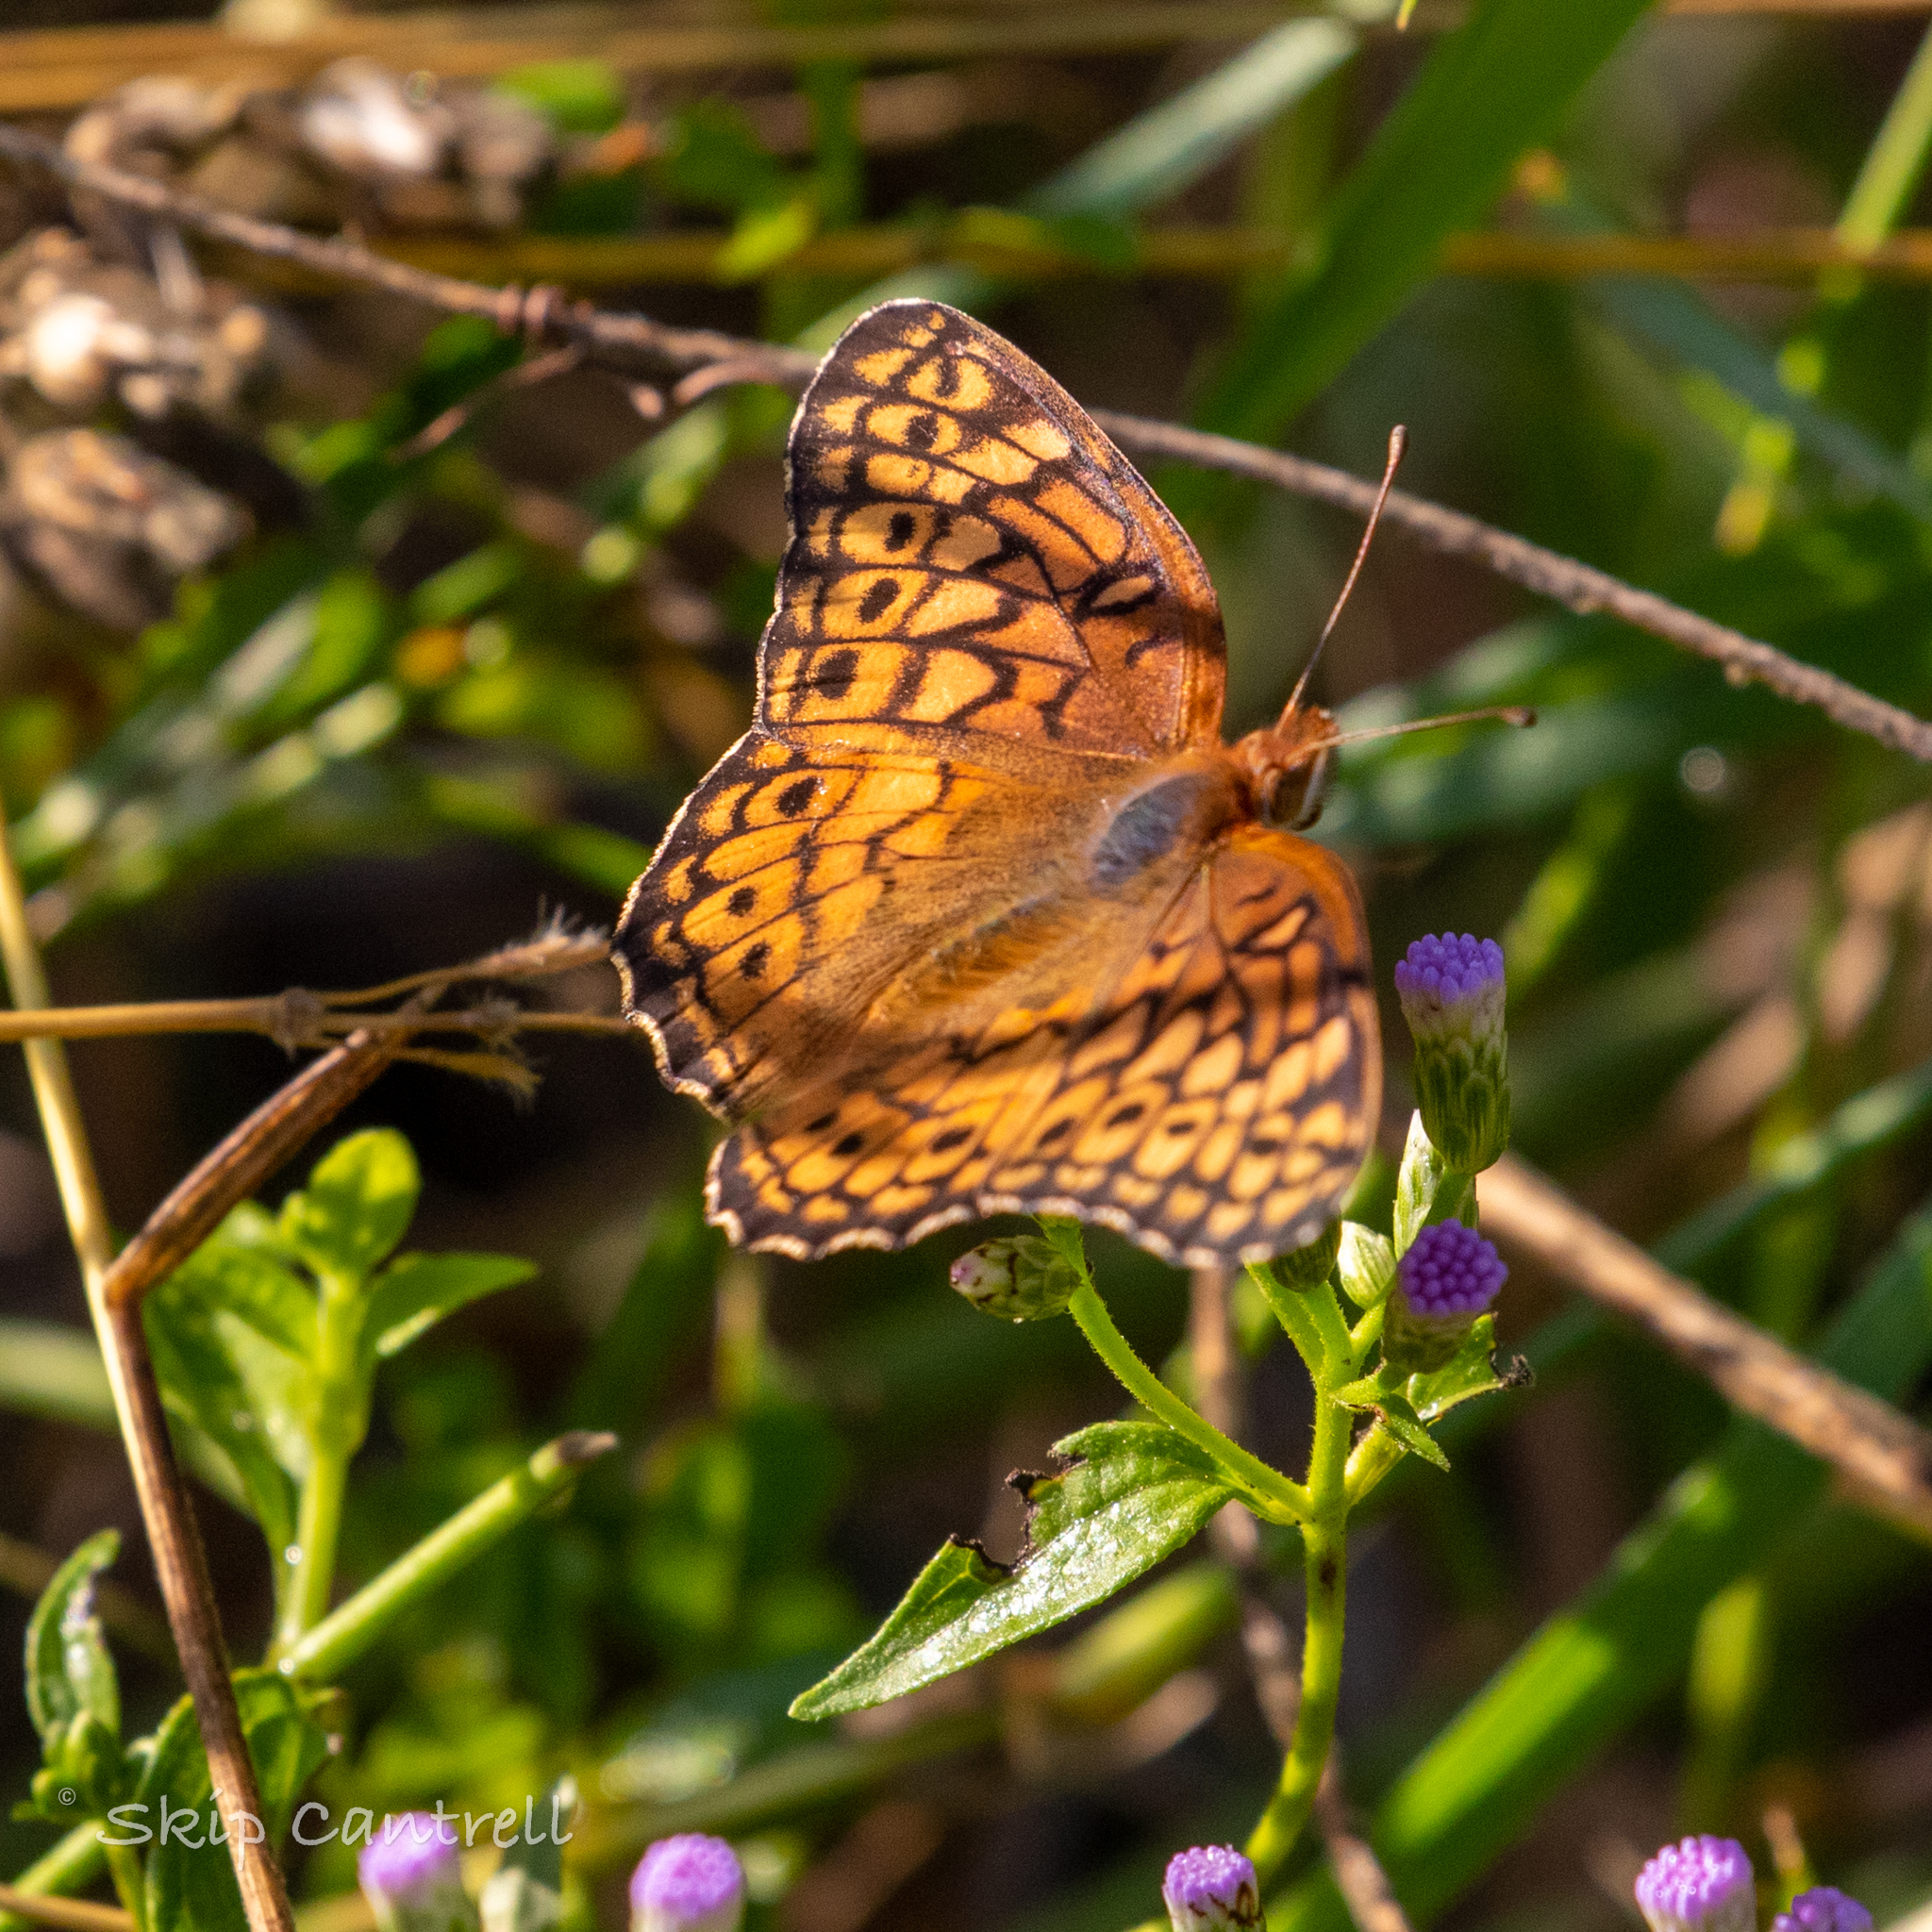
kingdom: Animalia
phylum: Arthropoda
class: Insecta
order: Lepidoptera
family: Nymphalidae
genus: Euptoieta
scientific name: Euptoieta claudia
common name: Variegated fritillary
